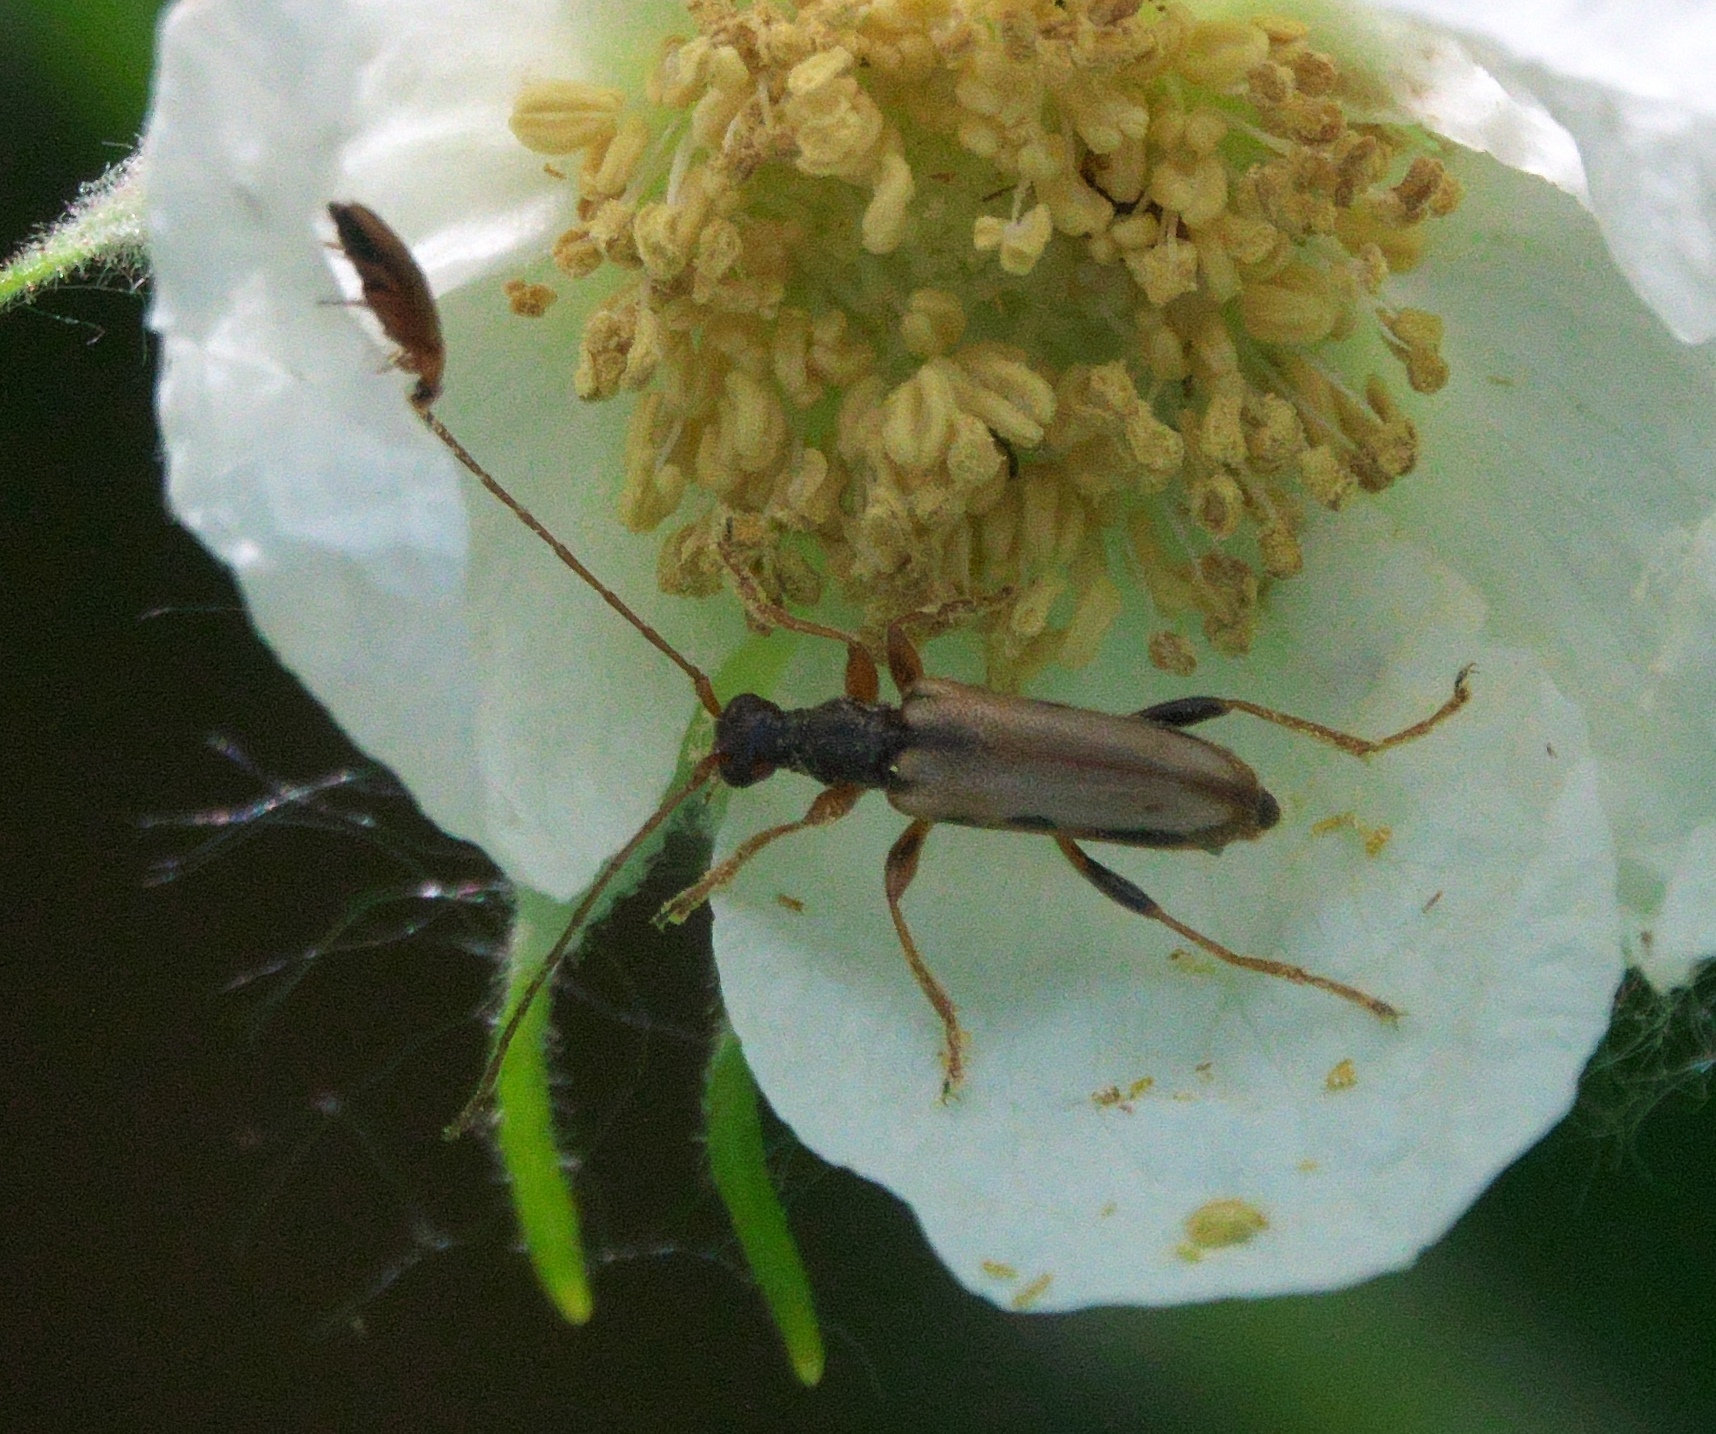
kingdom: Animalia
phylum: Arthropoda
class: Insecta
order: Coleoptera
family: Cerambycidae
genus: Pidonia
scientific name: Pidonia scripta
